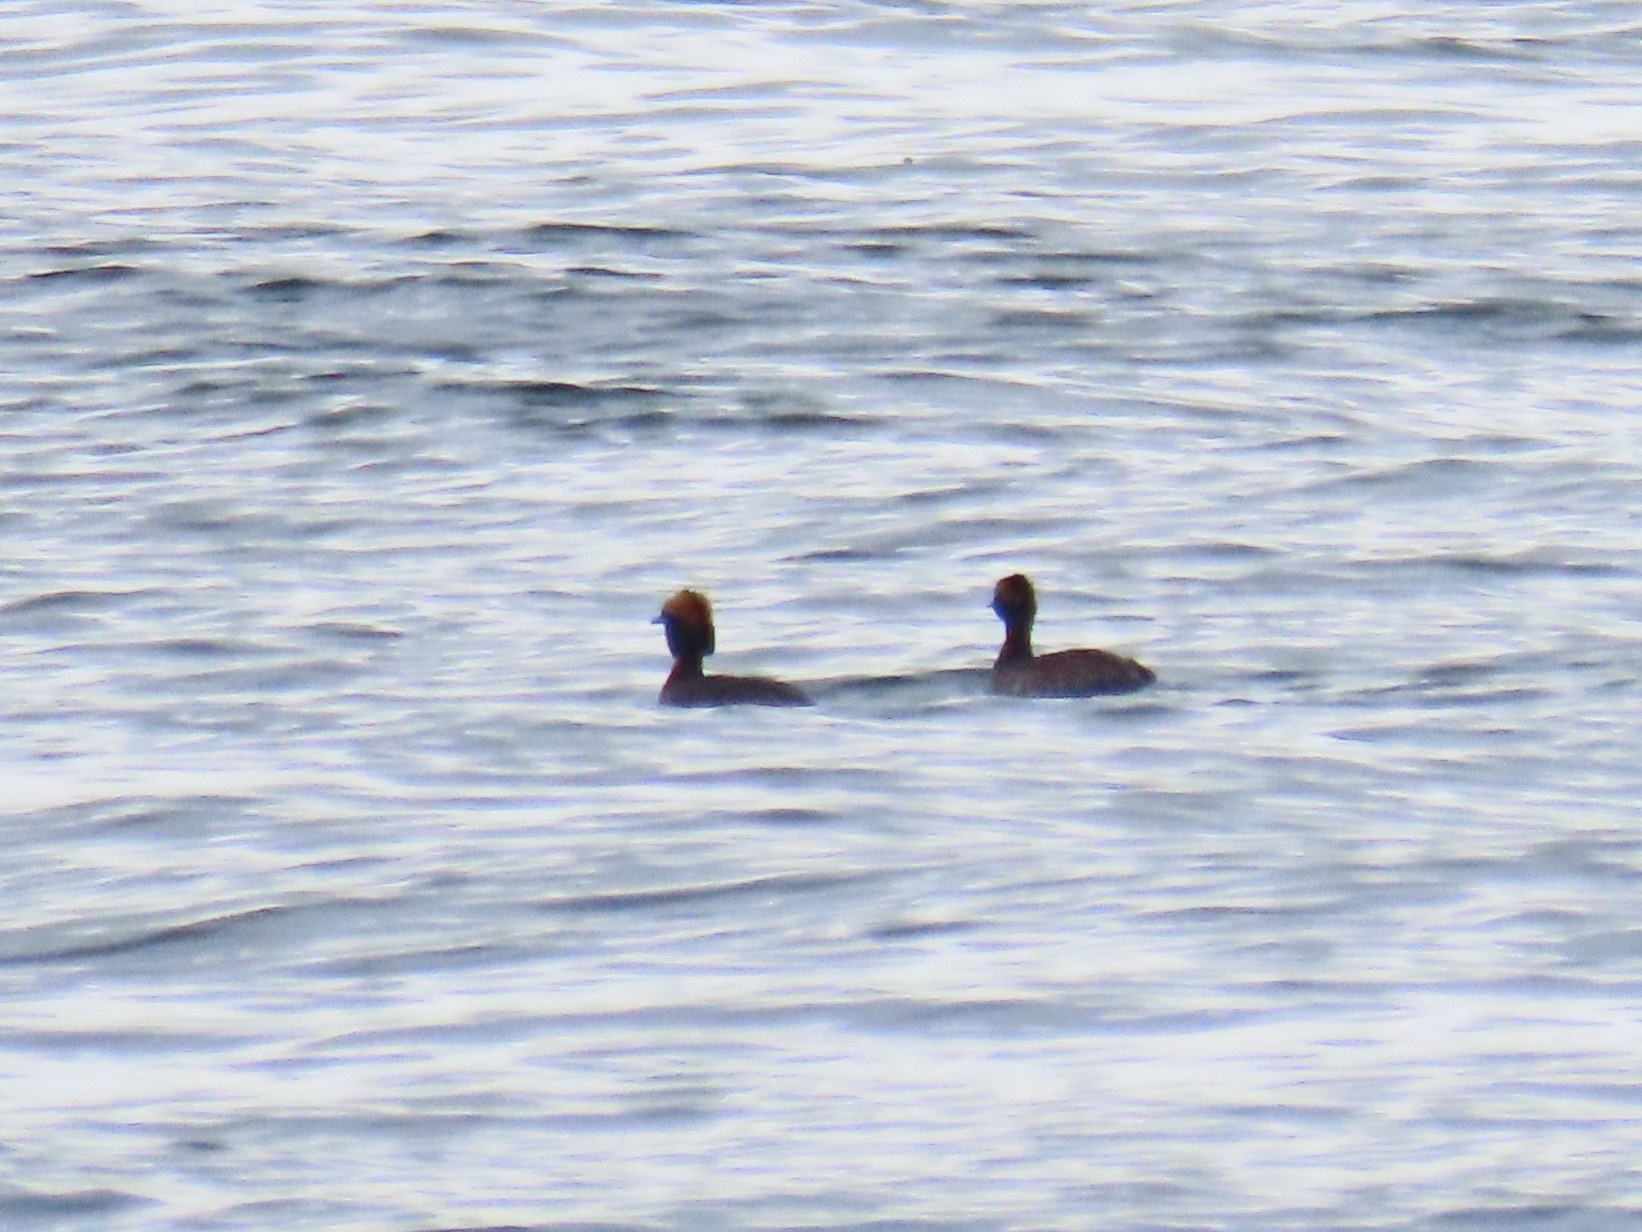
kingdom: Animalia
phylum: Chordata
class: Aves
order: Podicipediformes
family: Podicipedidae
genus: Podiceps
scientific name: Podiceps auritus
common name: Horned grebe
